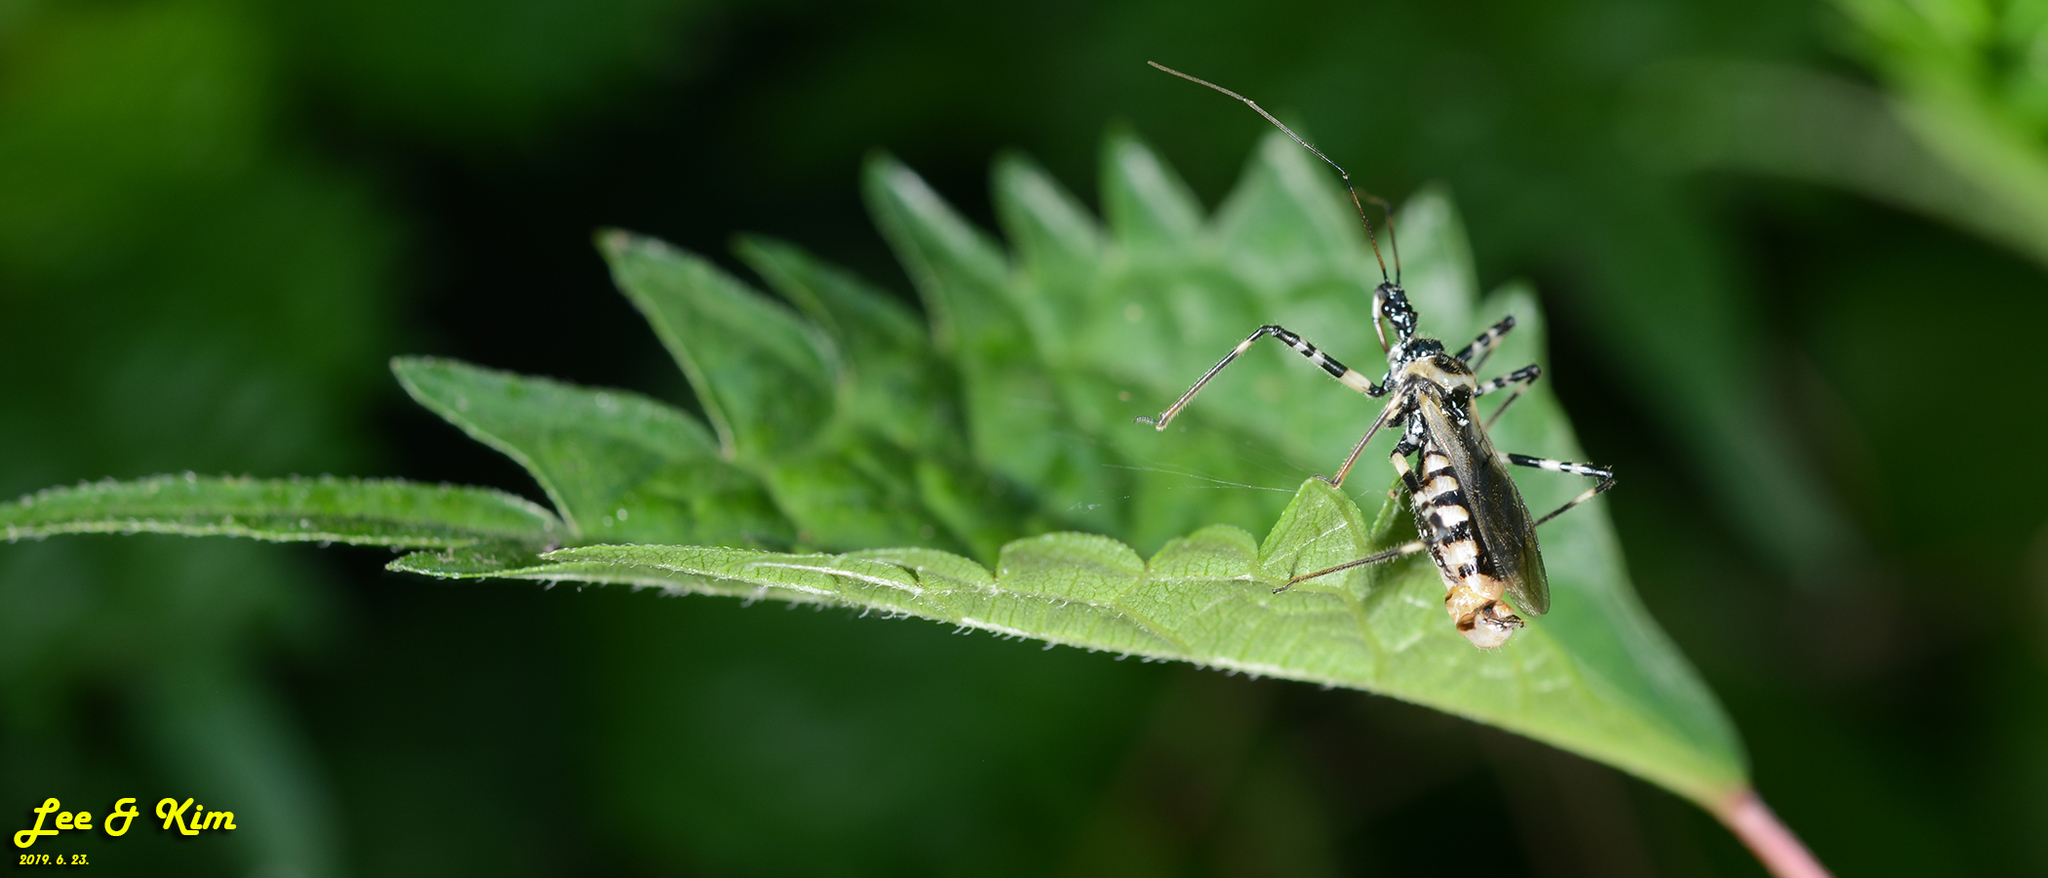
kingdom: Animalia
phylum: Arthropoda
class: Insecta
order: Hemiptera
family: Reduviidae
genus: Sphedanolestes
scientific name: Sphedanolestes impressicollis
